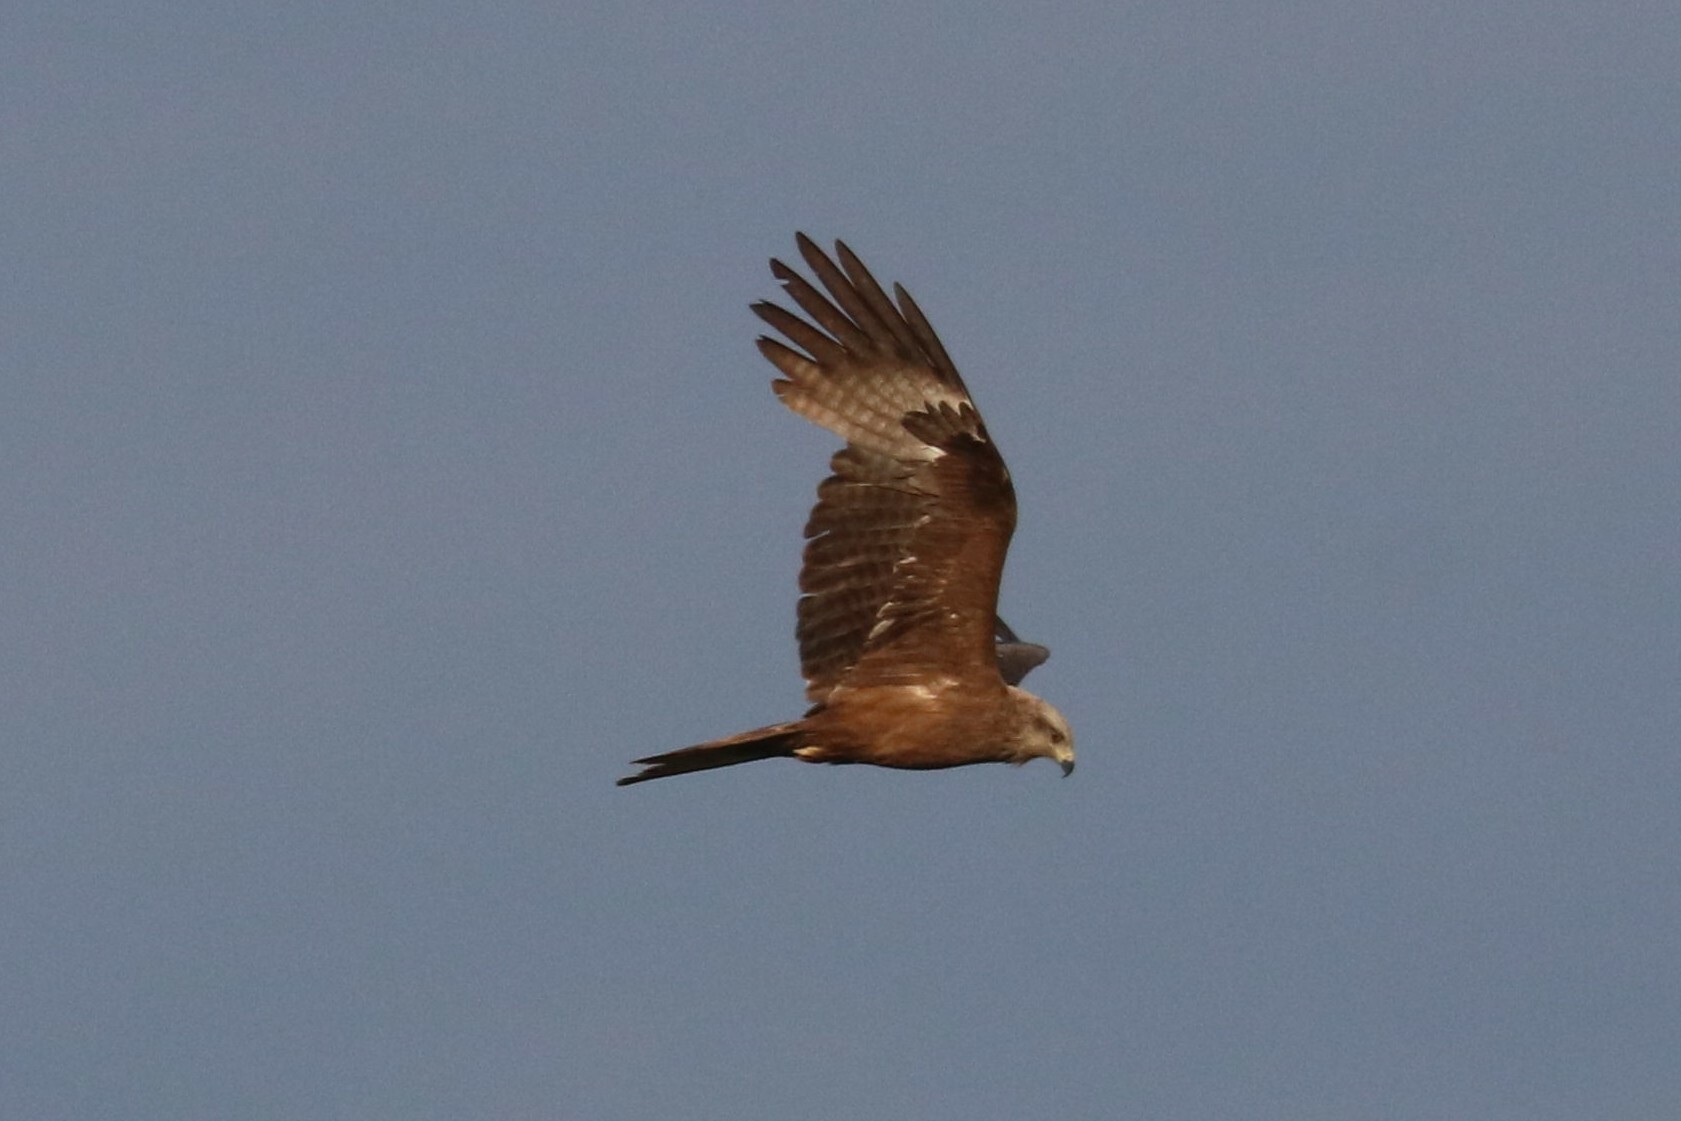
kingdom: Animalia
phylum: Chordata
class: Aves
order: Accipitriformes
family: Accipitridae
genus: Milvus
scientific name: Milvus migrans
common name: Black kite
